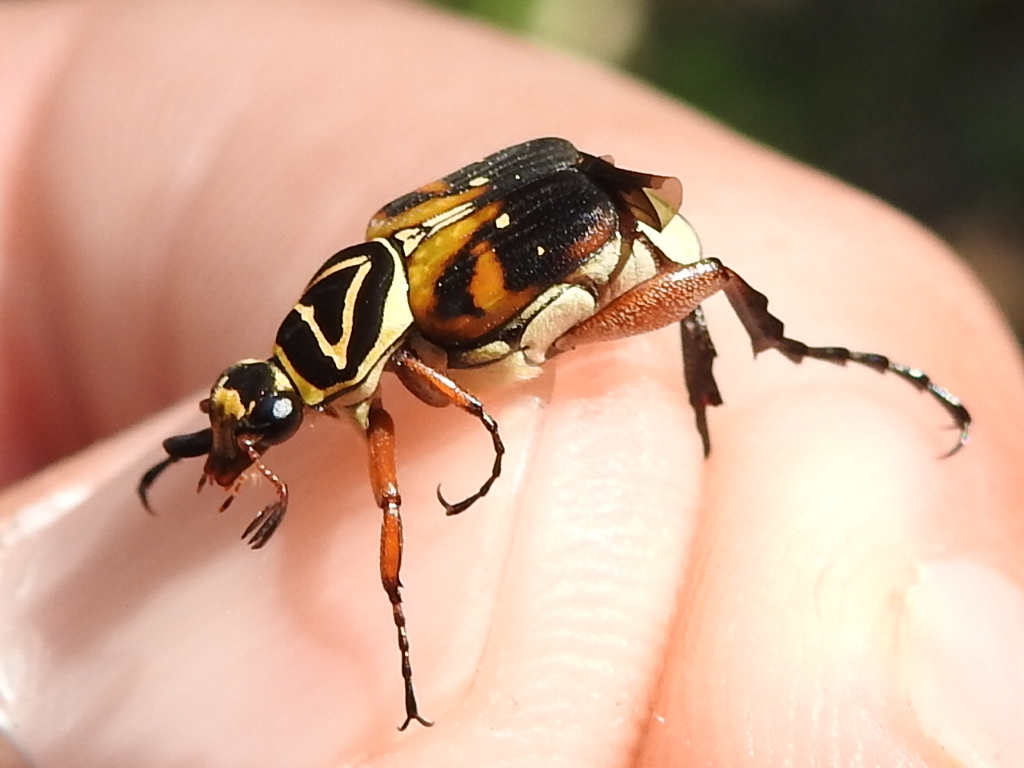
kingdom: Animalia
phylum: Arthropoda
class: Insecta
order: Coleoptera
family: Scarabaeidae
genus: Trigonopeltastes
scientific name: Trigonopeltastes delta
